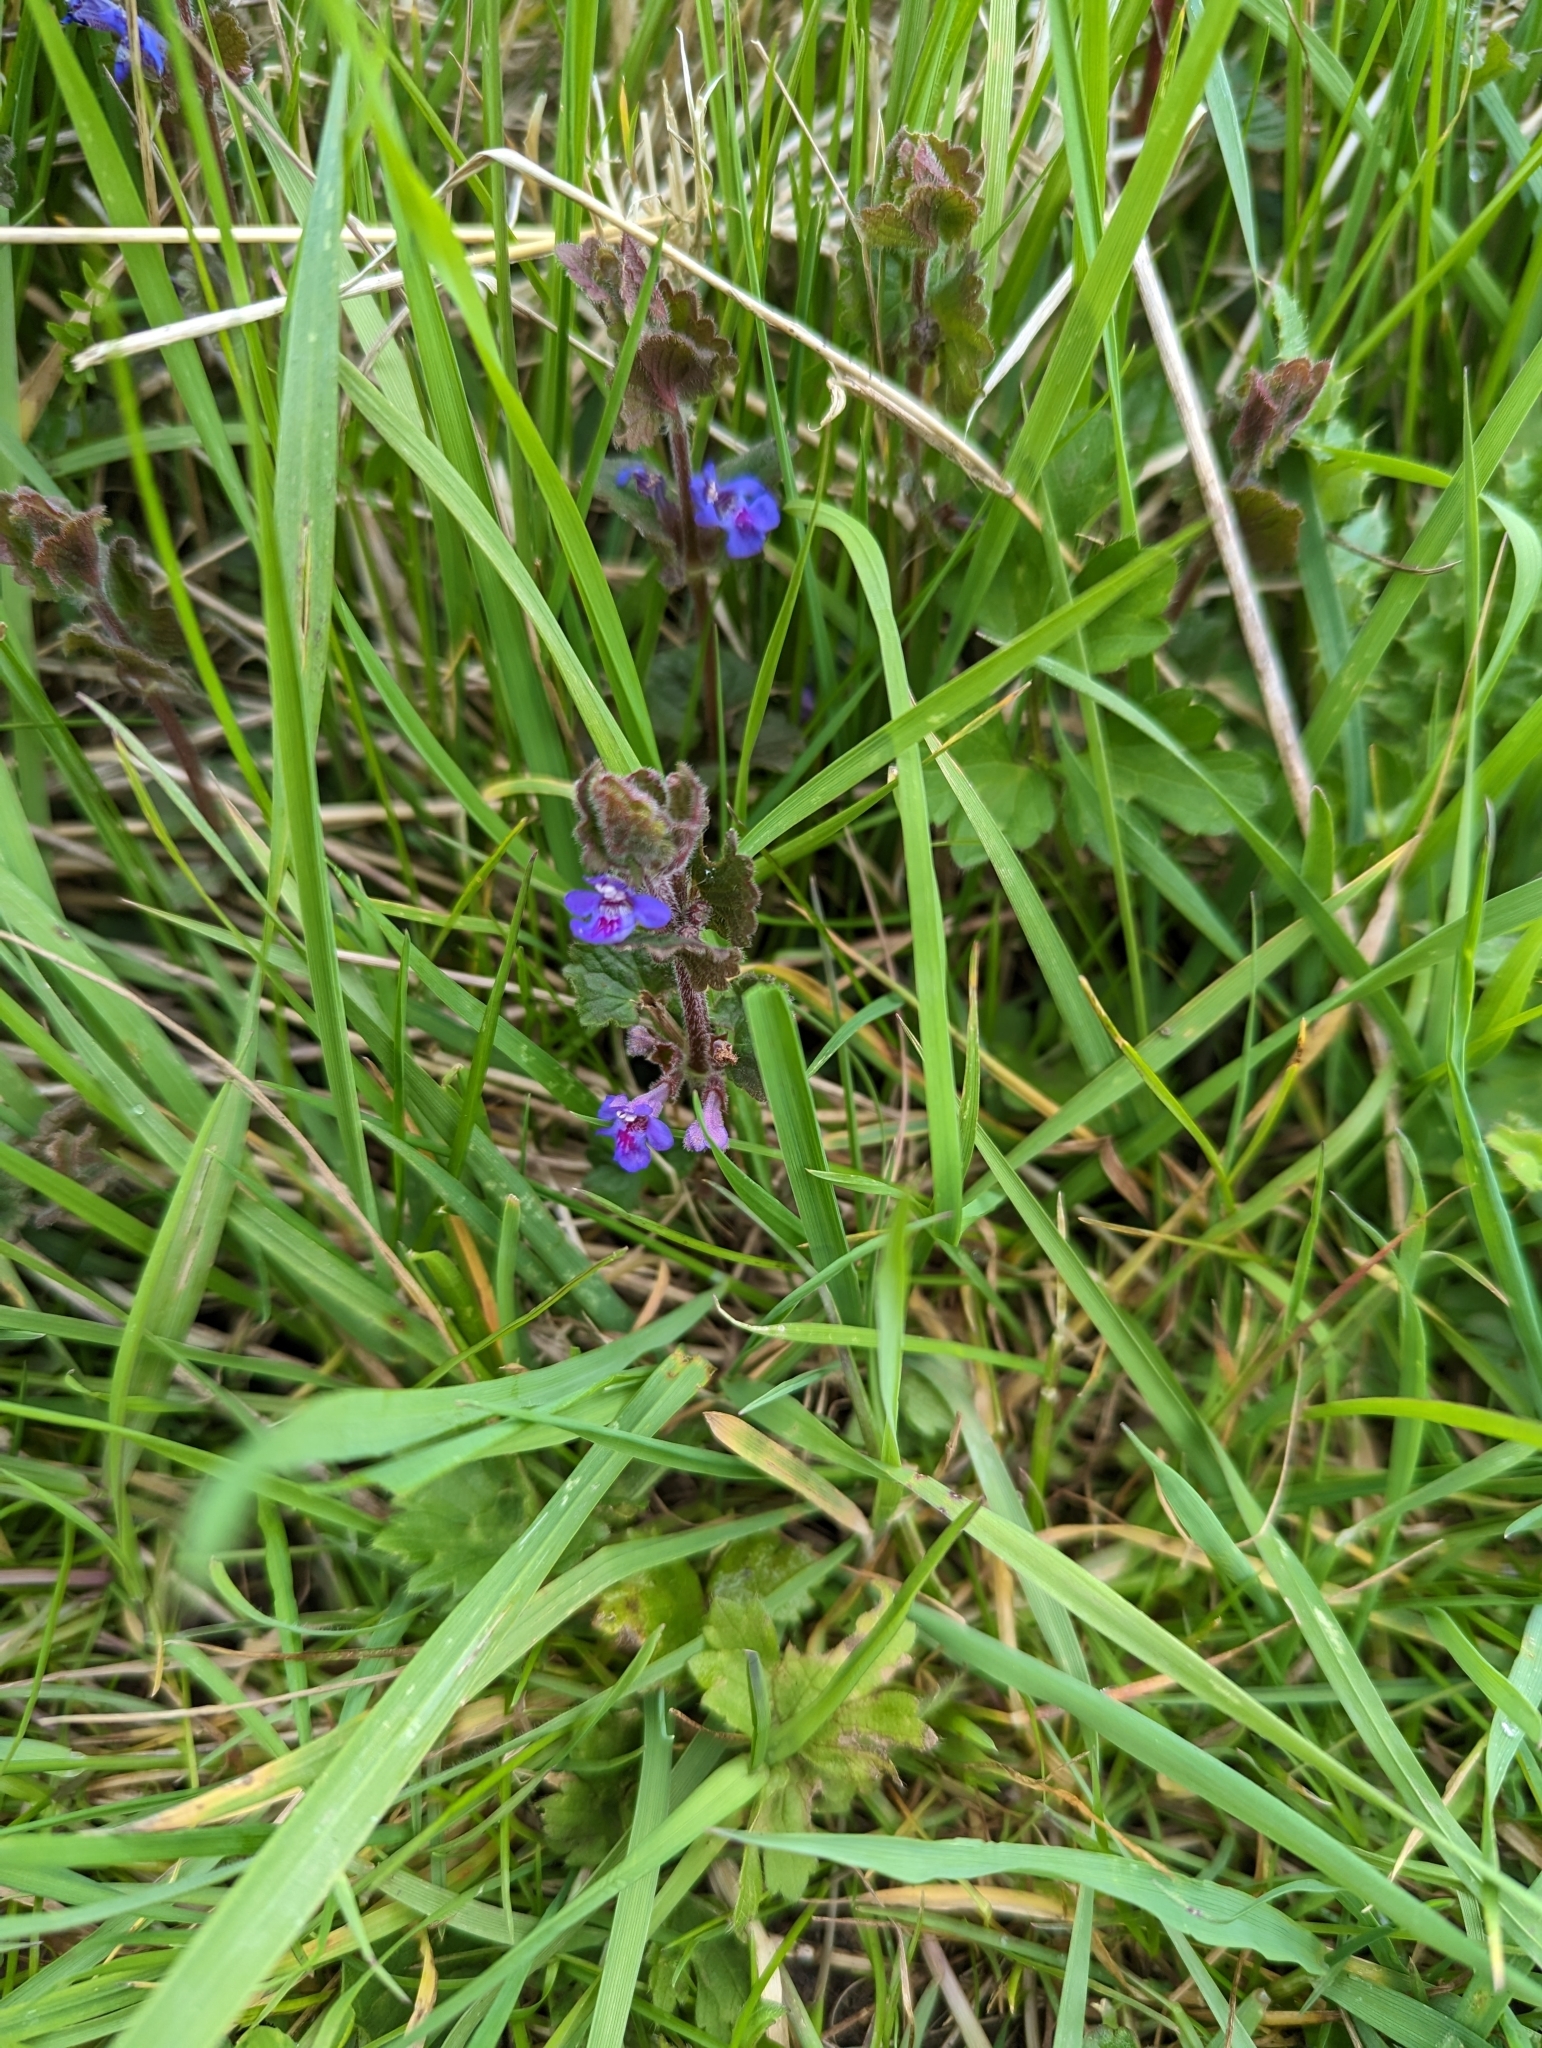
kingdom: Plantae
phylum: Tracheophyta
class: Magnoliopsida
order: Lamiales
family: Lamiaceae
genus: Glechoma
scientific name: Glechoma hederacea
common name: Ground ivy
